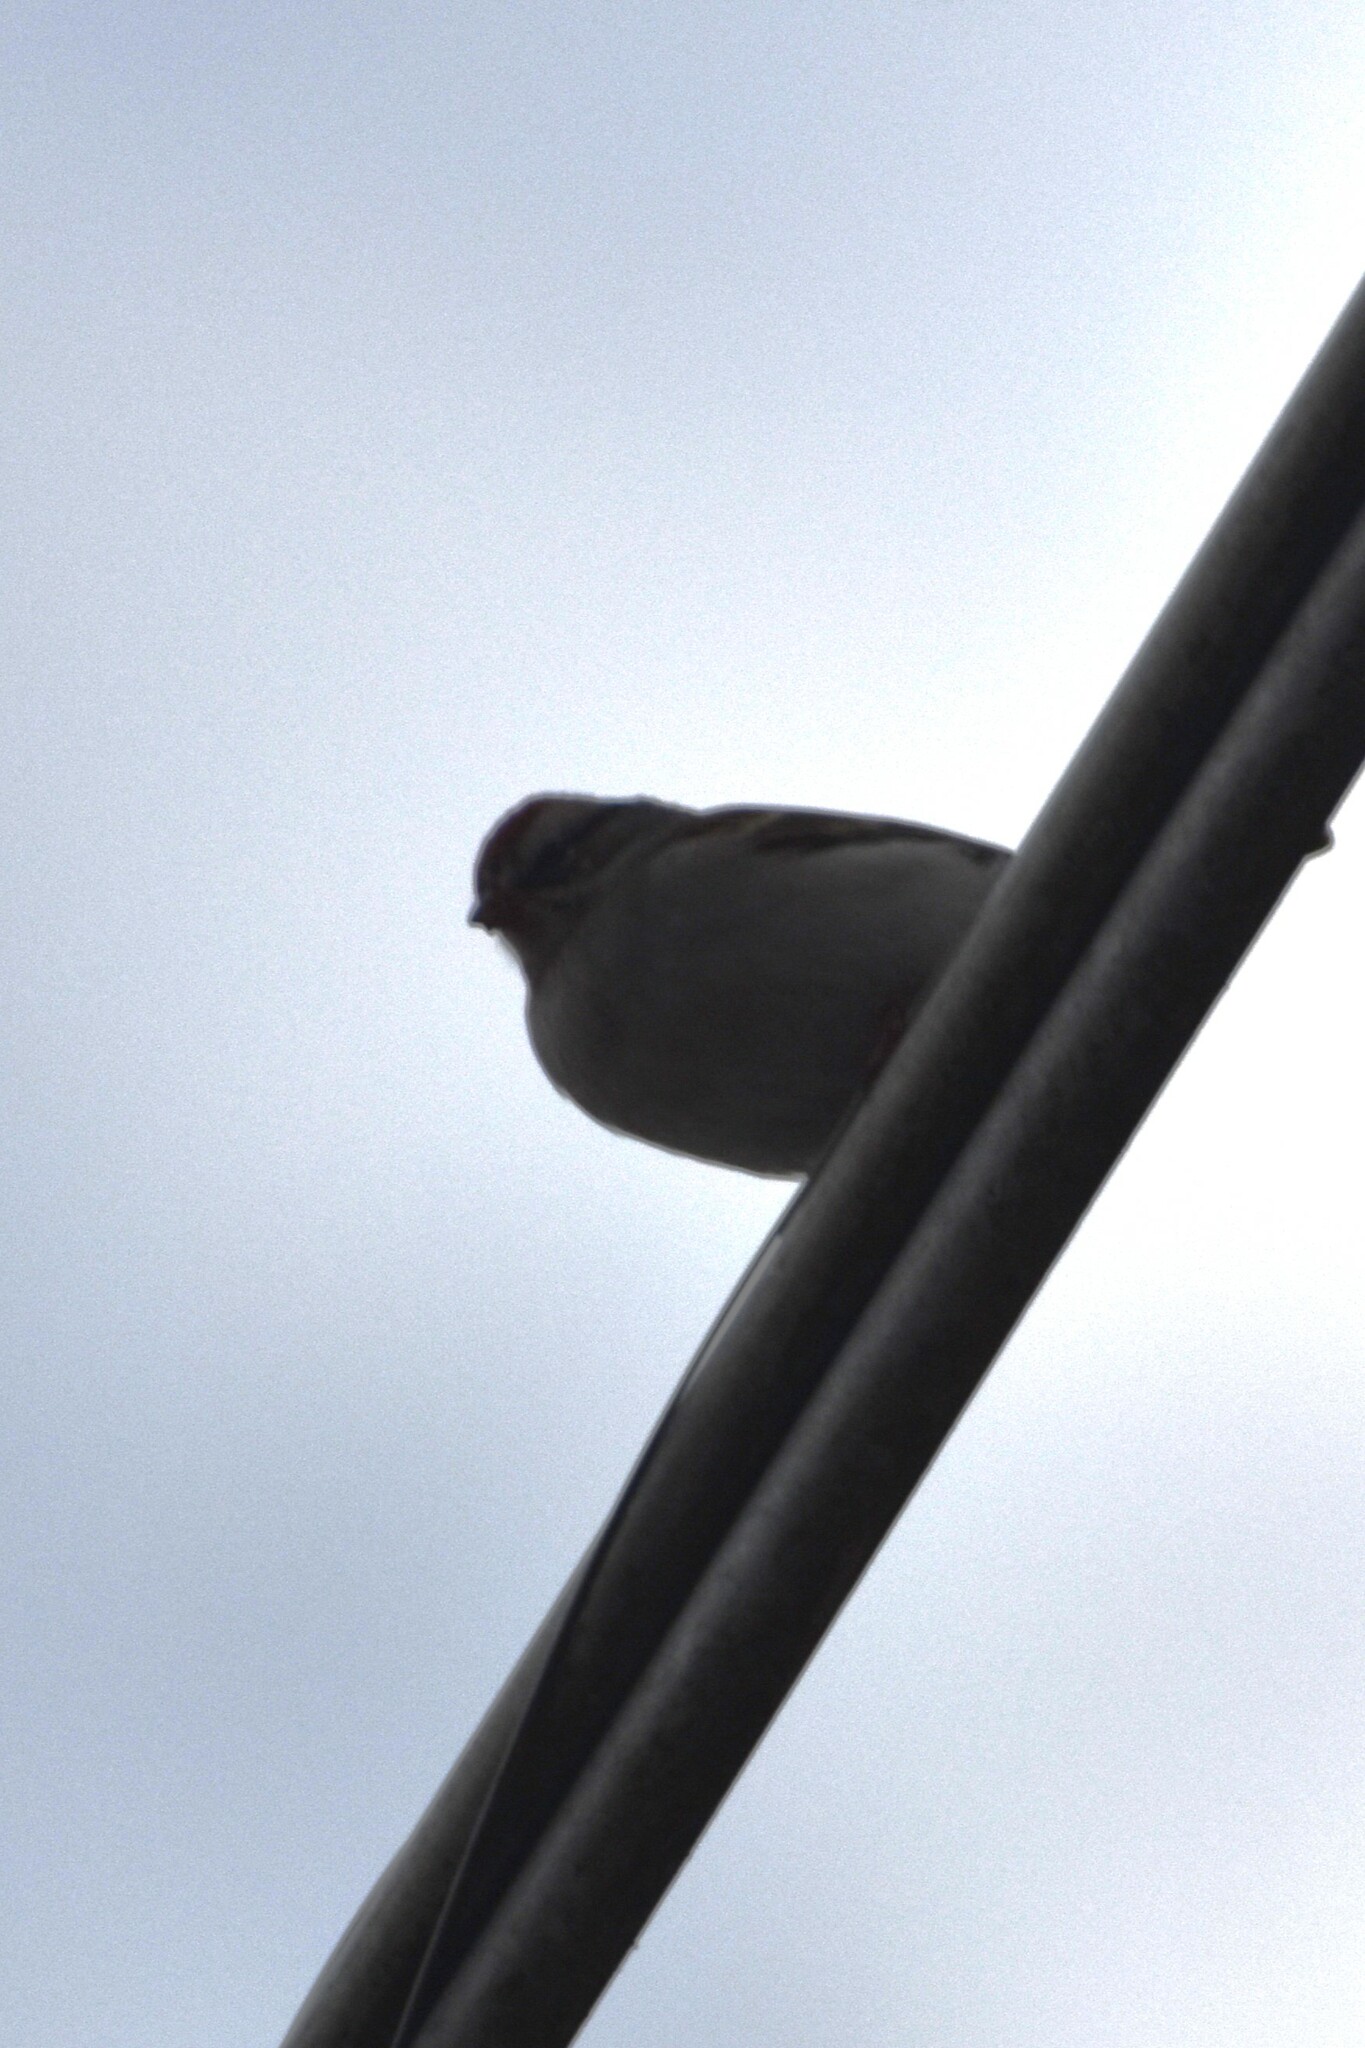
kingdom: Animalia
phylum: Chordata
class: Aves
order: Passeriformes
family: Passerellidae
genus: Spizella
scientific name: Spizella passerina
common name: Chipping sparrow
